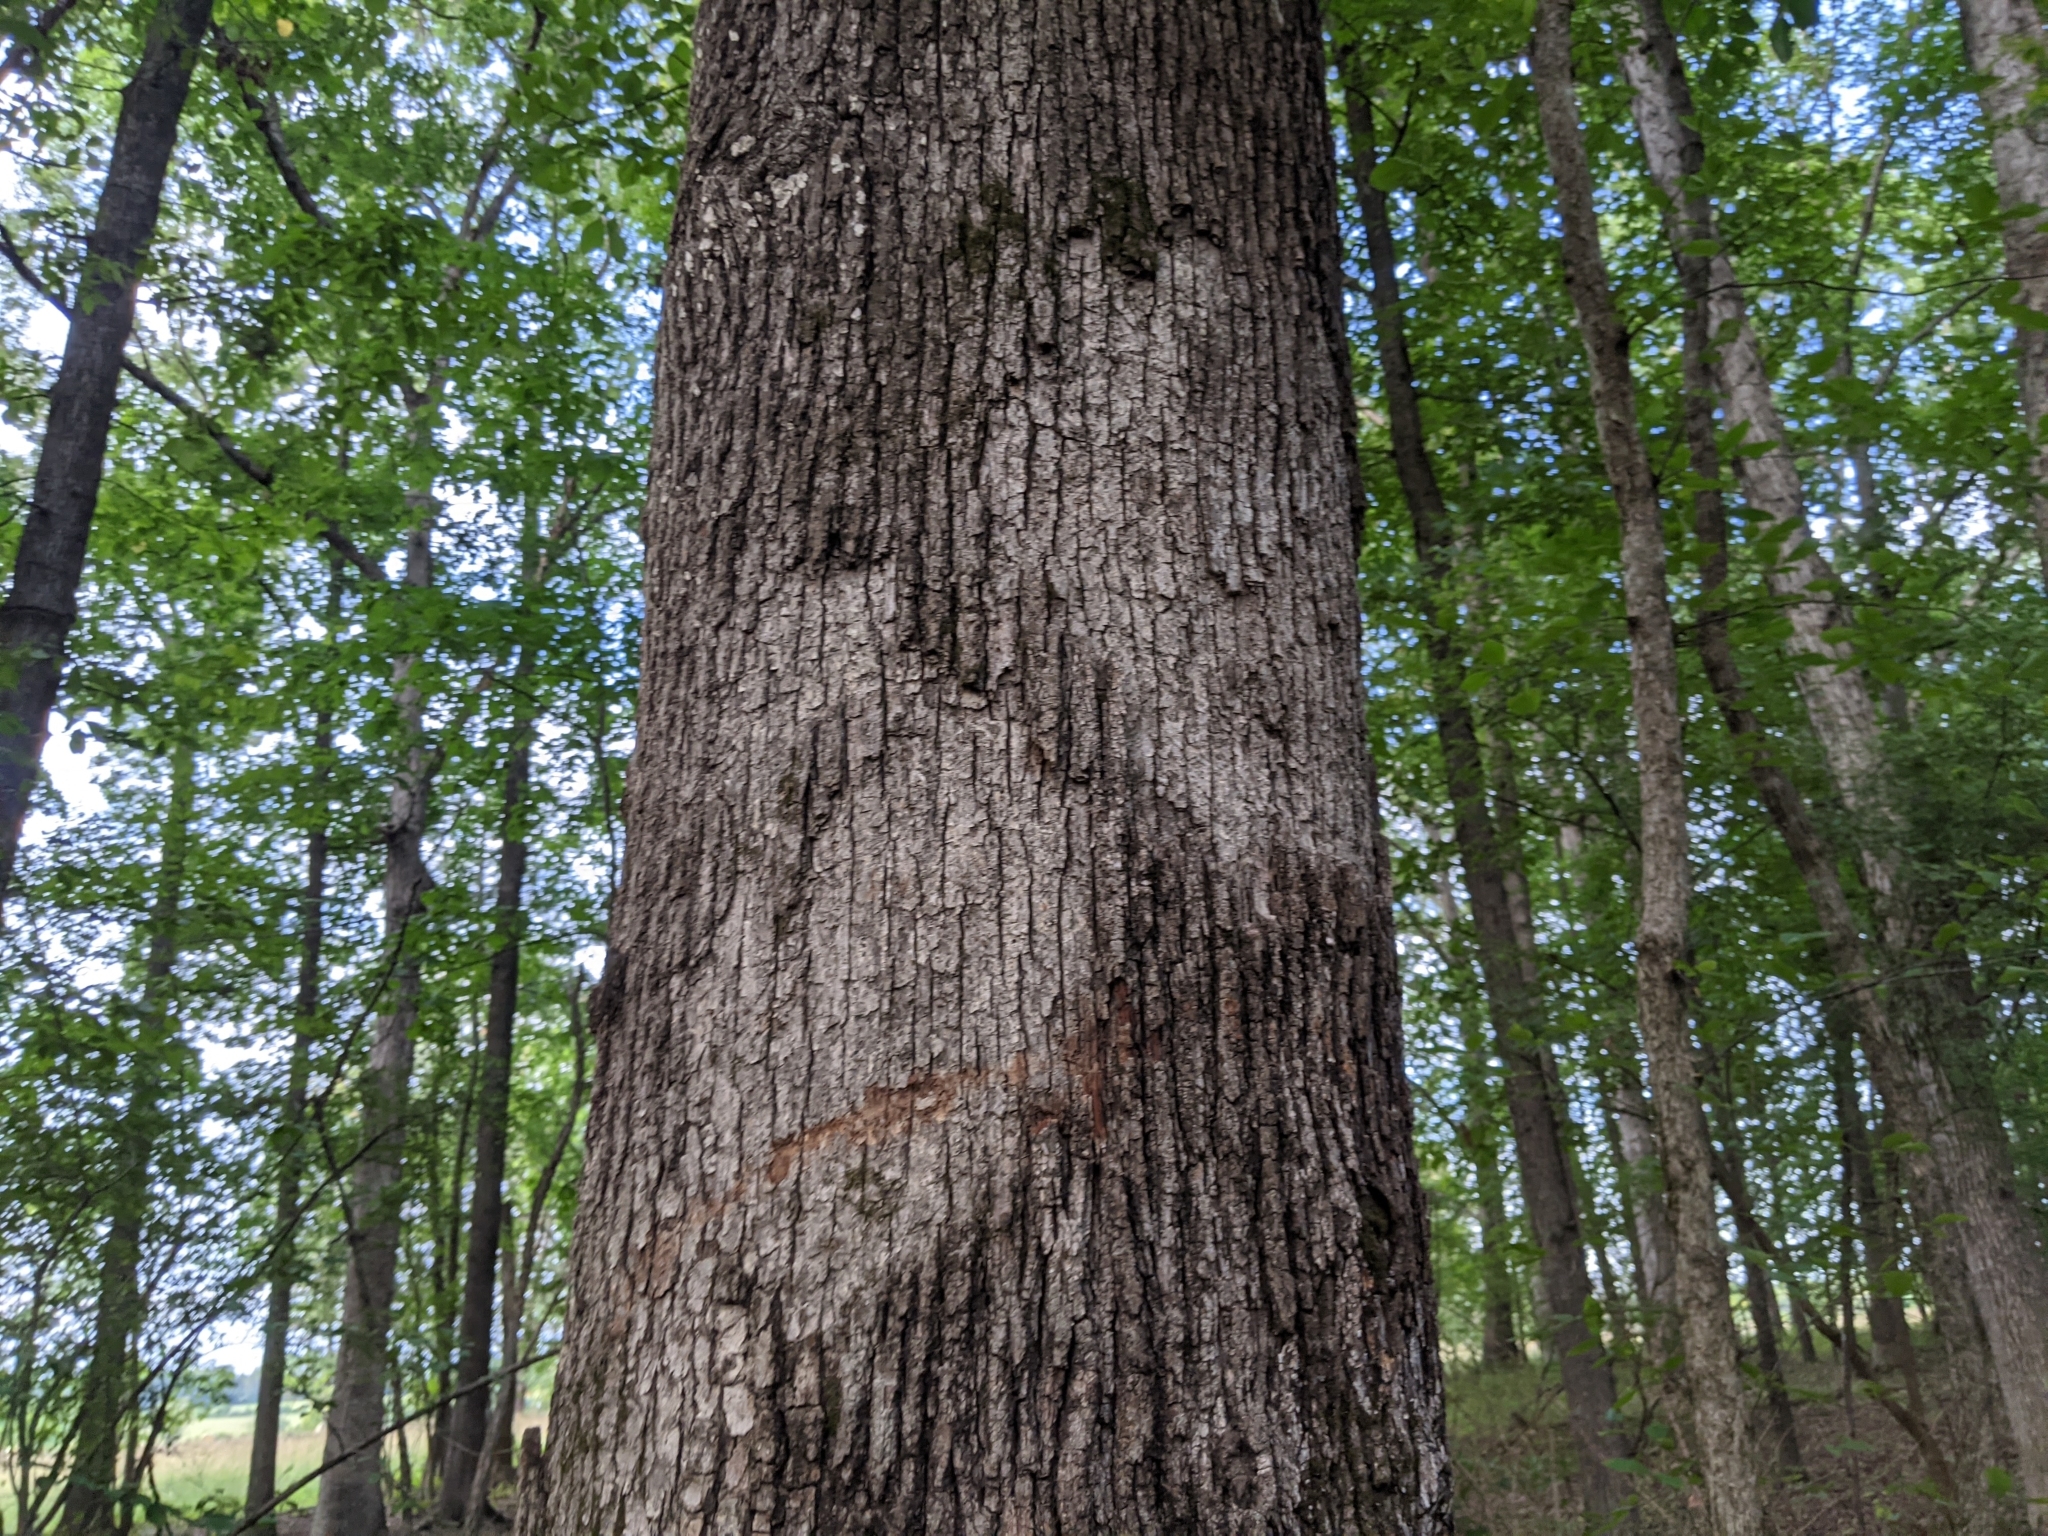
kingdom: Fungi
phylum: Basidiomycota
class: Agaricomycetes
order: Russulales
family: Stereaceae
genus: Acanthophysium
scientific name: Acanthophysium oakesii
